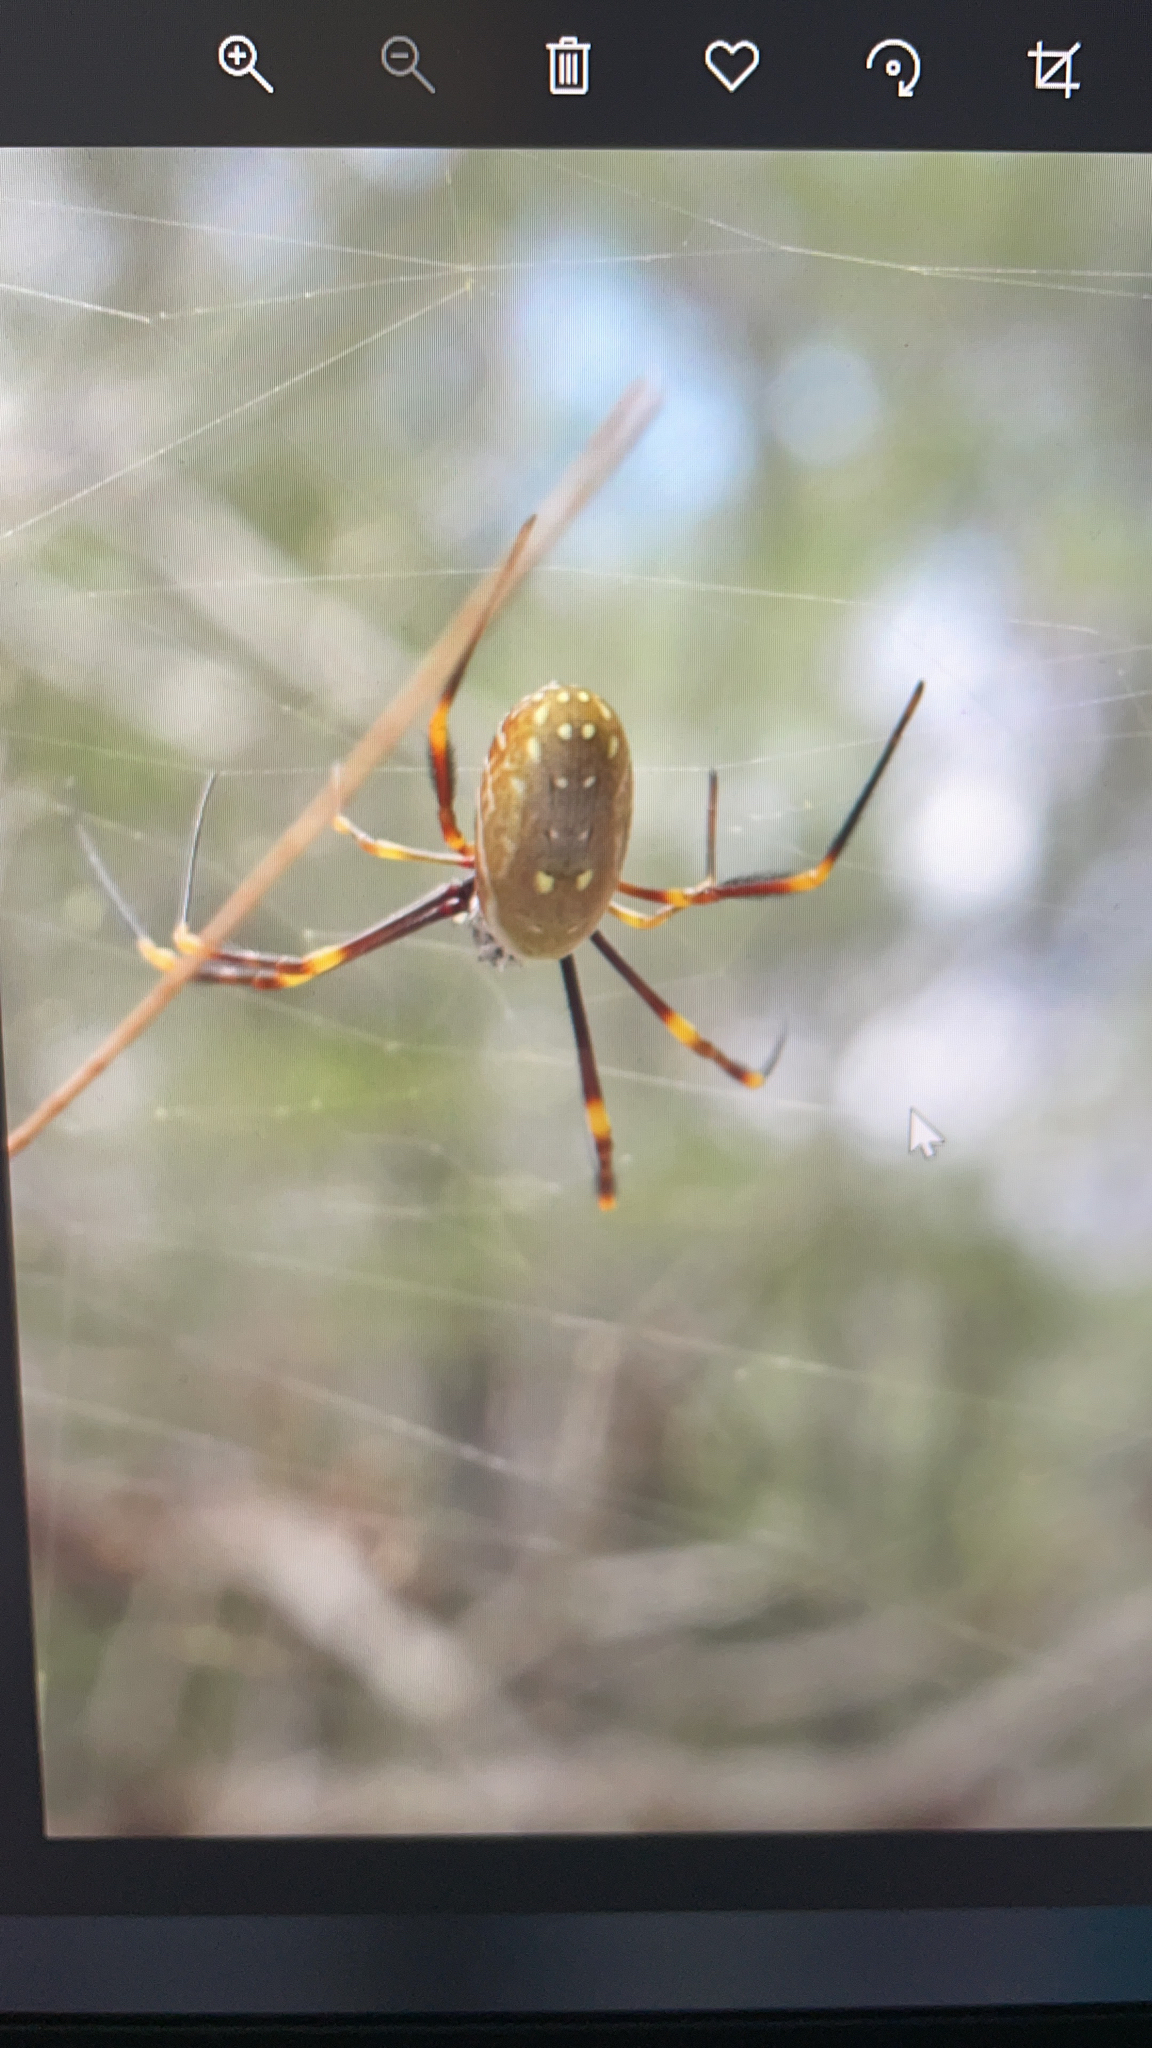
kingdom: Animalia
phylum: Arthropoda
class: Arachnida
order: Araneae
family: Araneidae
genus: Trichonephila
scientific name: Trichonephila plumipes
